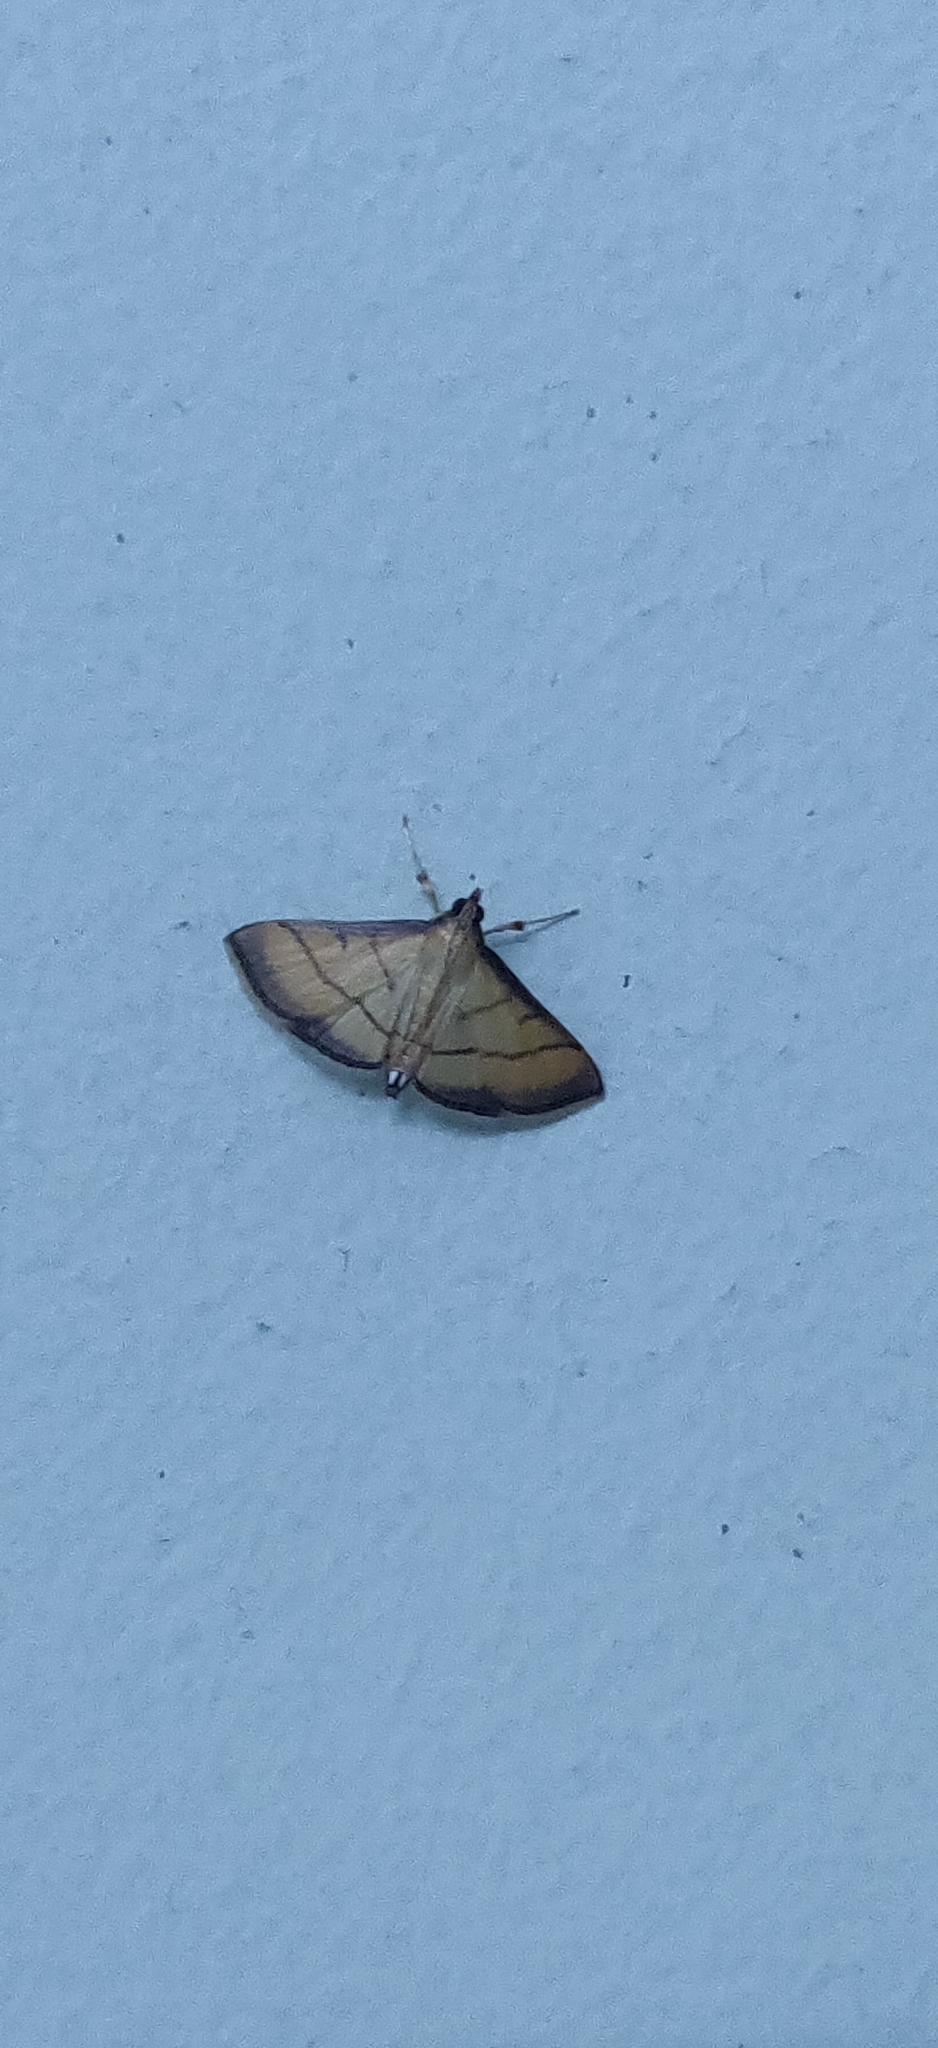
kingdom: Animalia
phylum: Arthropoda
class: Insecta
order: Lepidoptera
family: Crambidae
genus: Cnaphalocrocis
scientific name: Cnaphalocrocis medinalis
